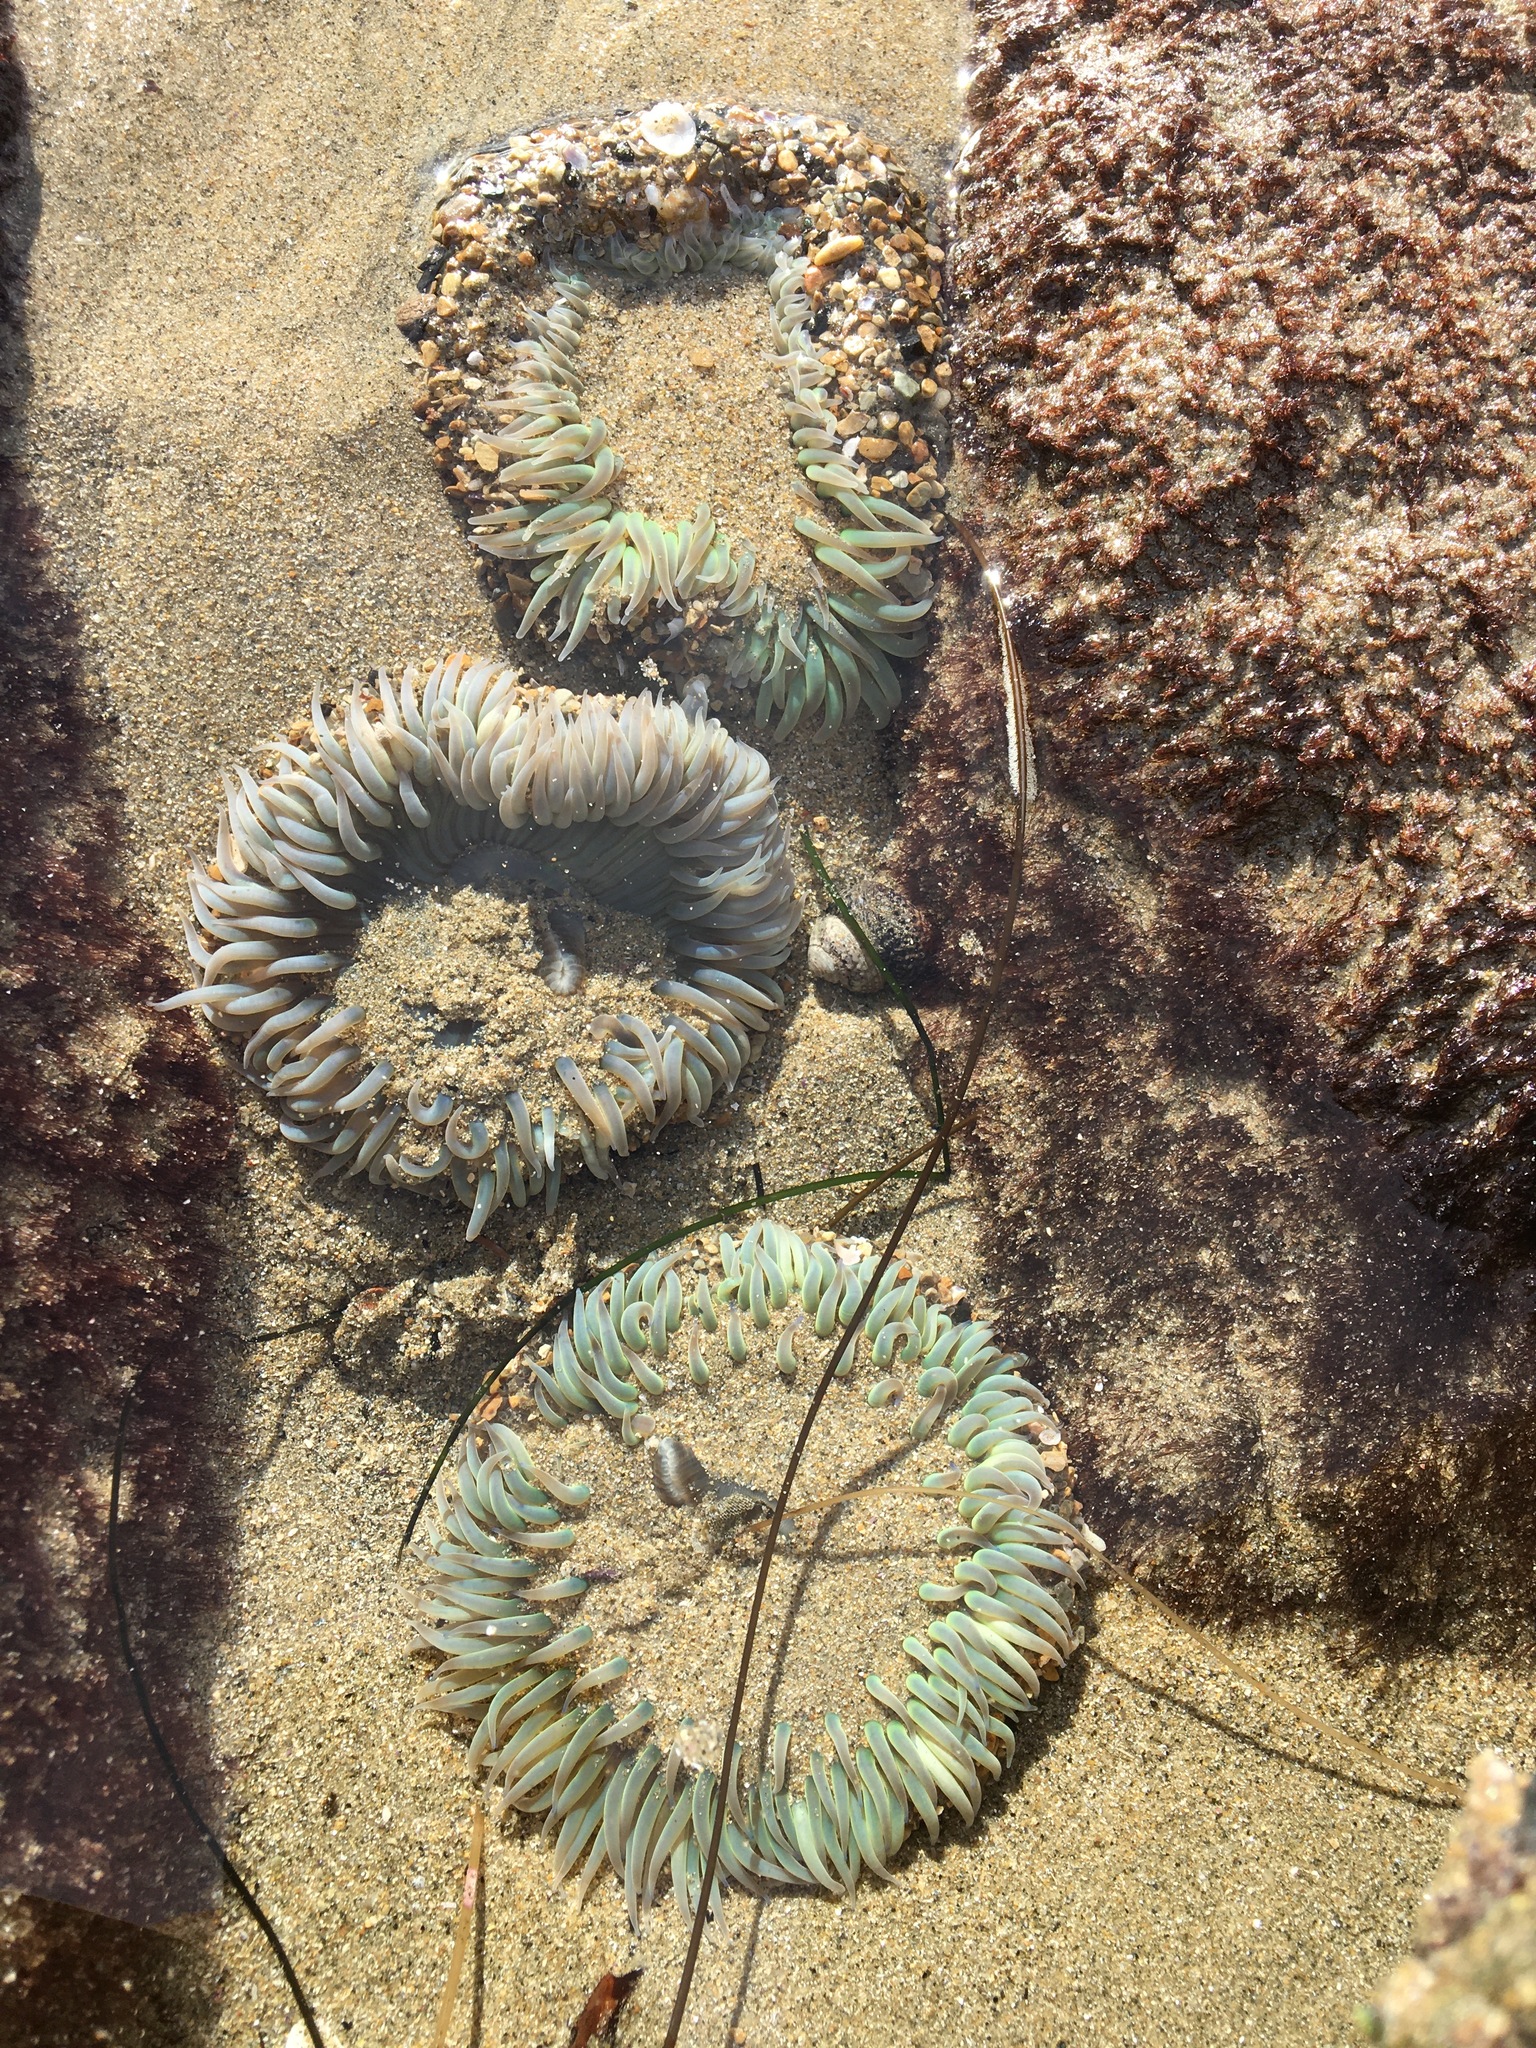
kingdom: Animalia
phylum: Cnidaria
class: Anthozoa
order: Actiniaria
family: Actiniidae
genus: Anthopleura
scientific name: Anthopleura sola
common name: Sun anemone
